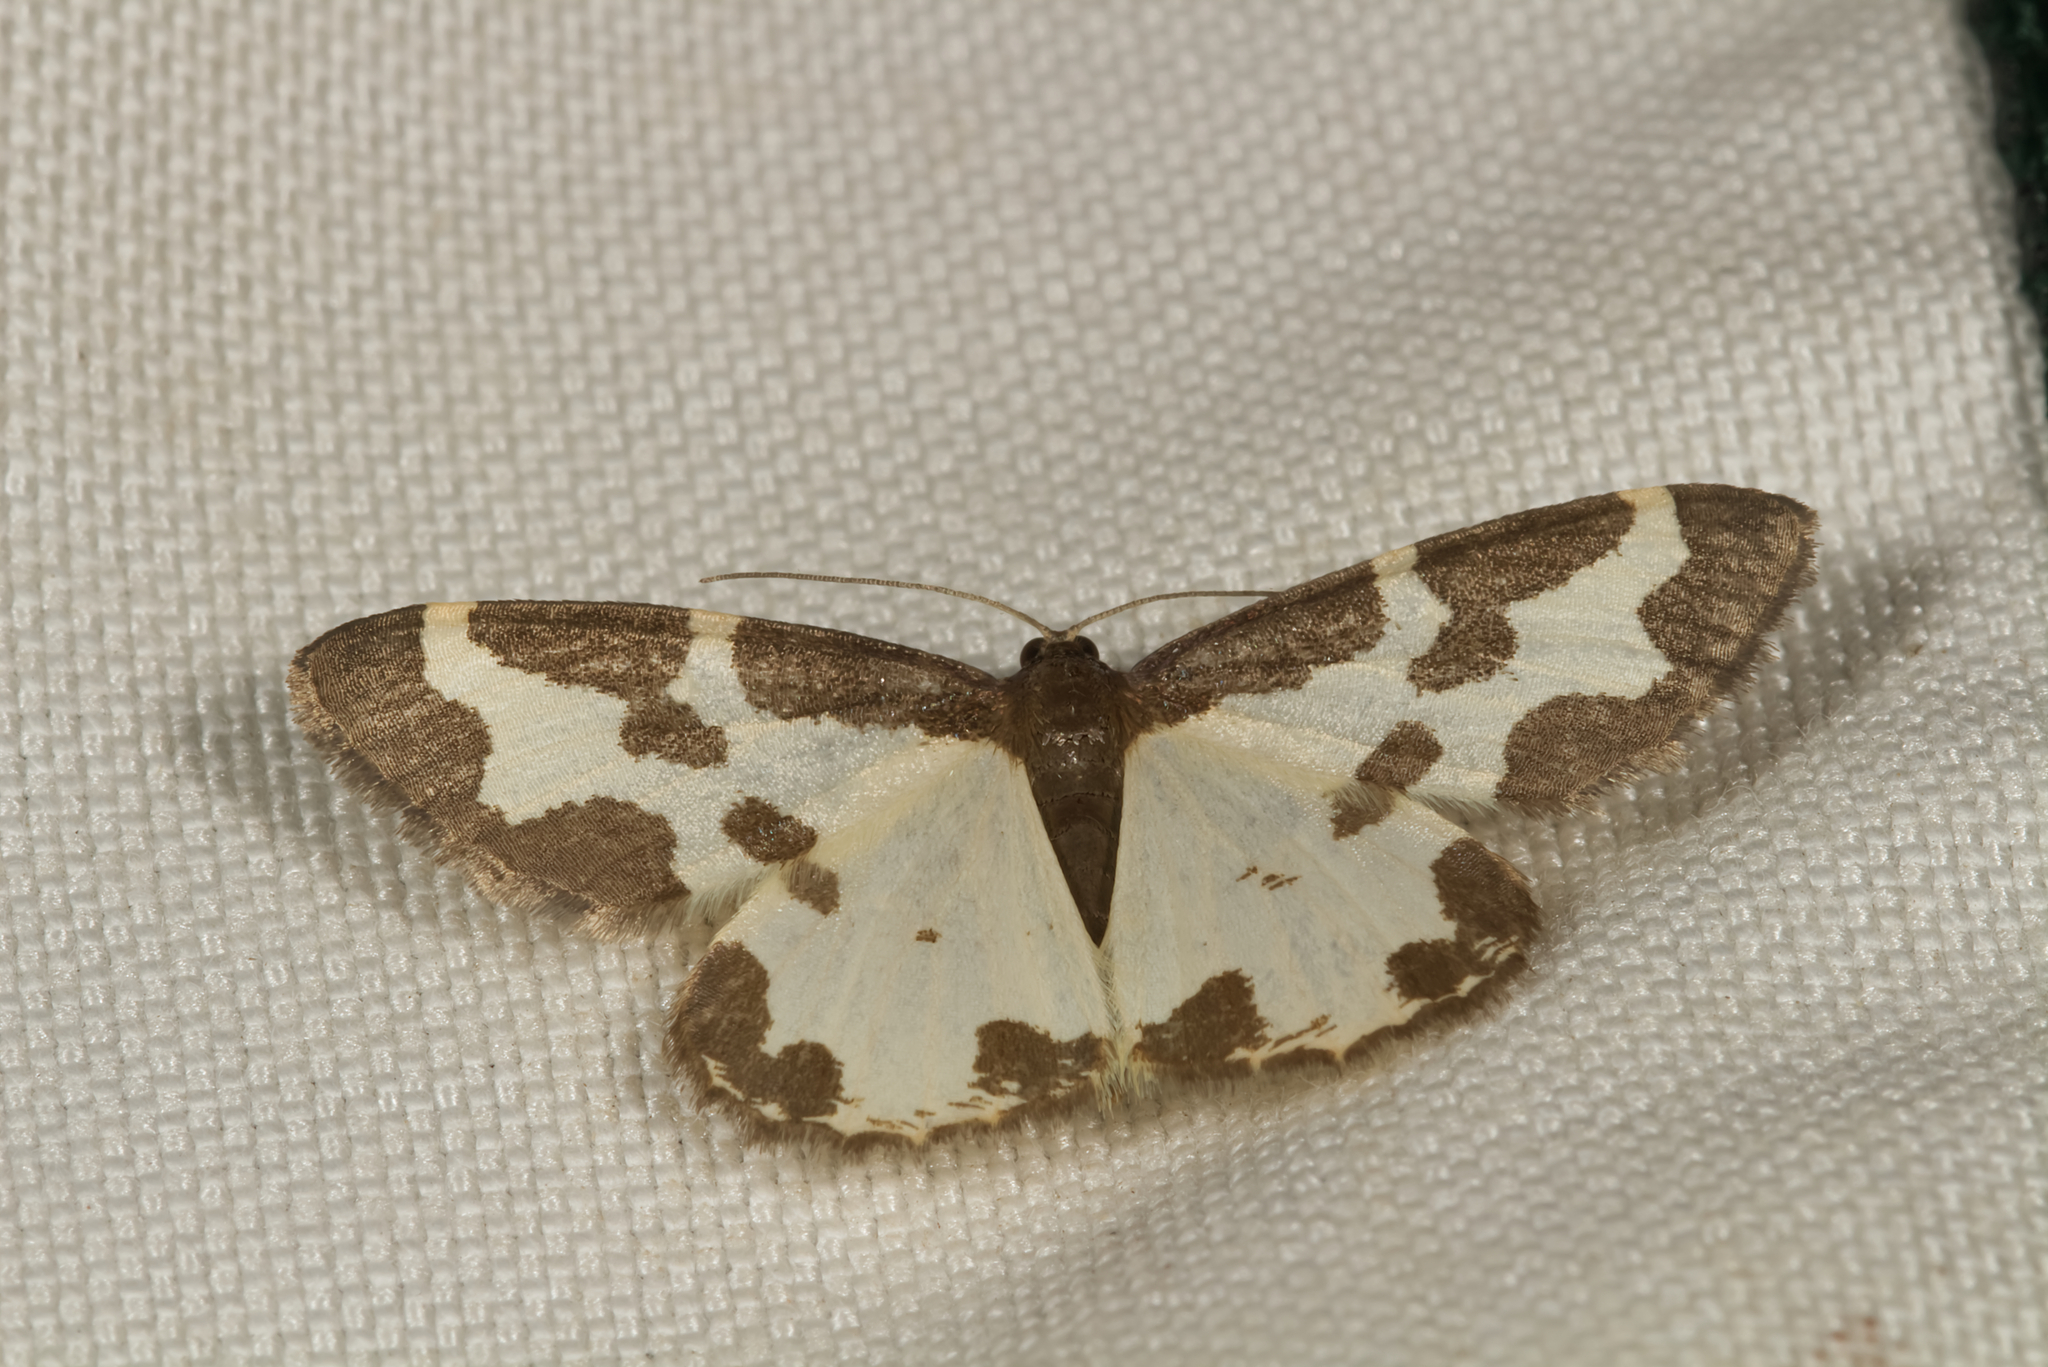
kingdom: Animalia
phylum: Arthropoda
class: Insecta
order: Lepidoptera
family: Geometridae
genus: Lomaspilis
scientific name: Lomaspilis marginata
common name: Clouded border
